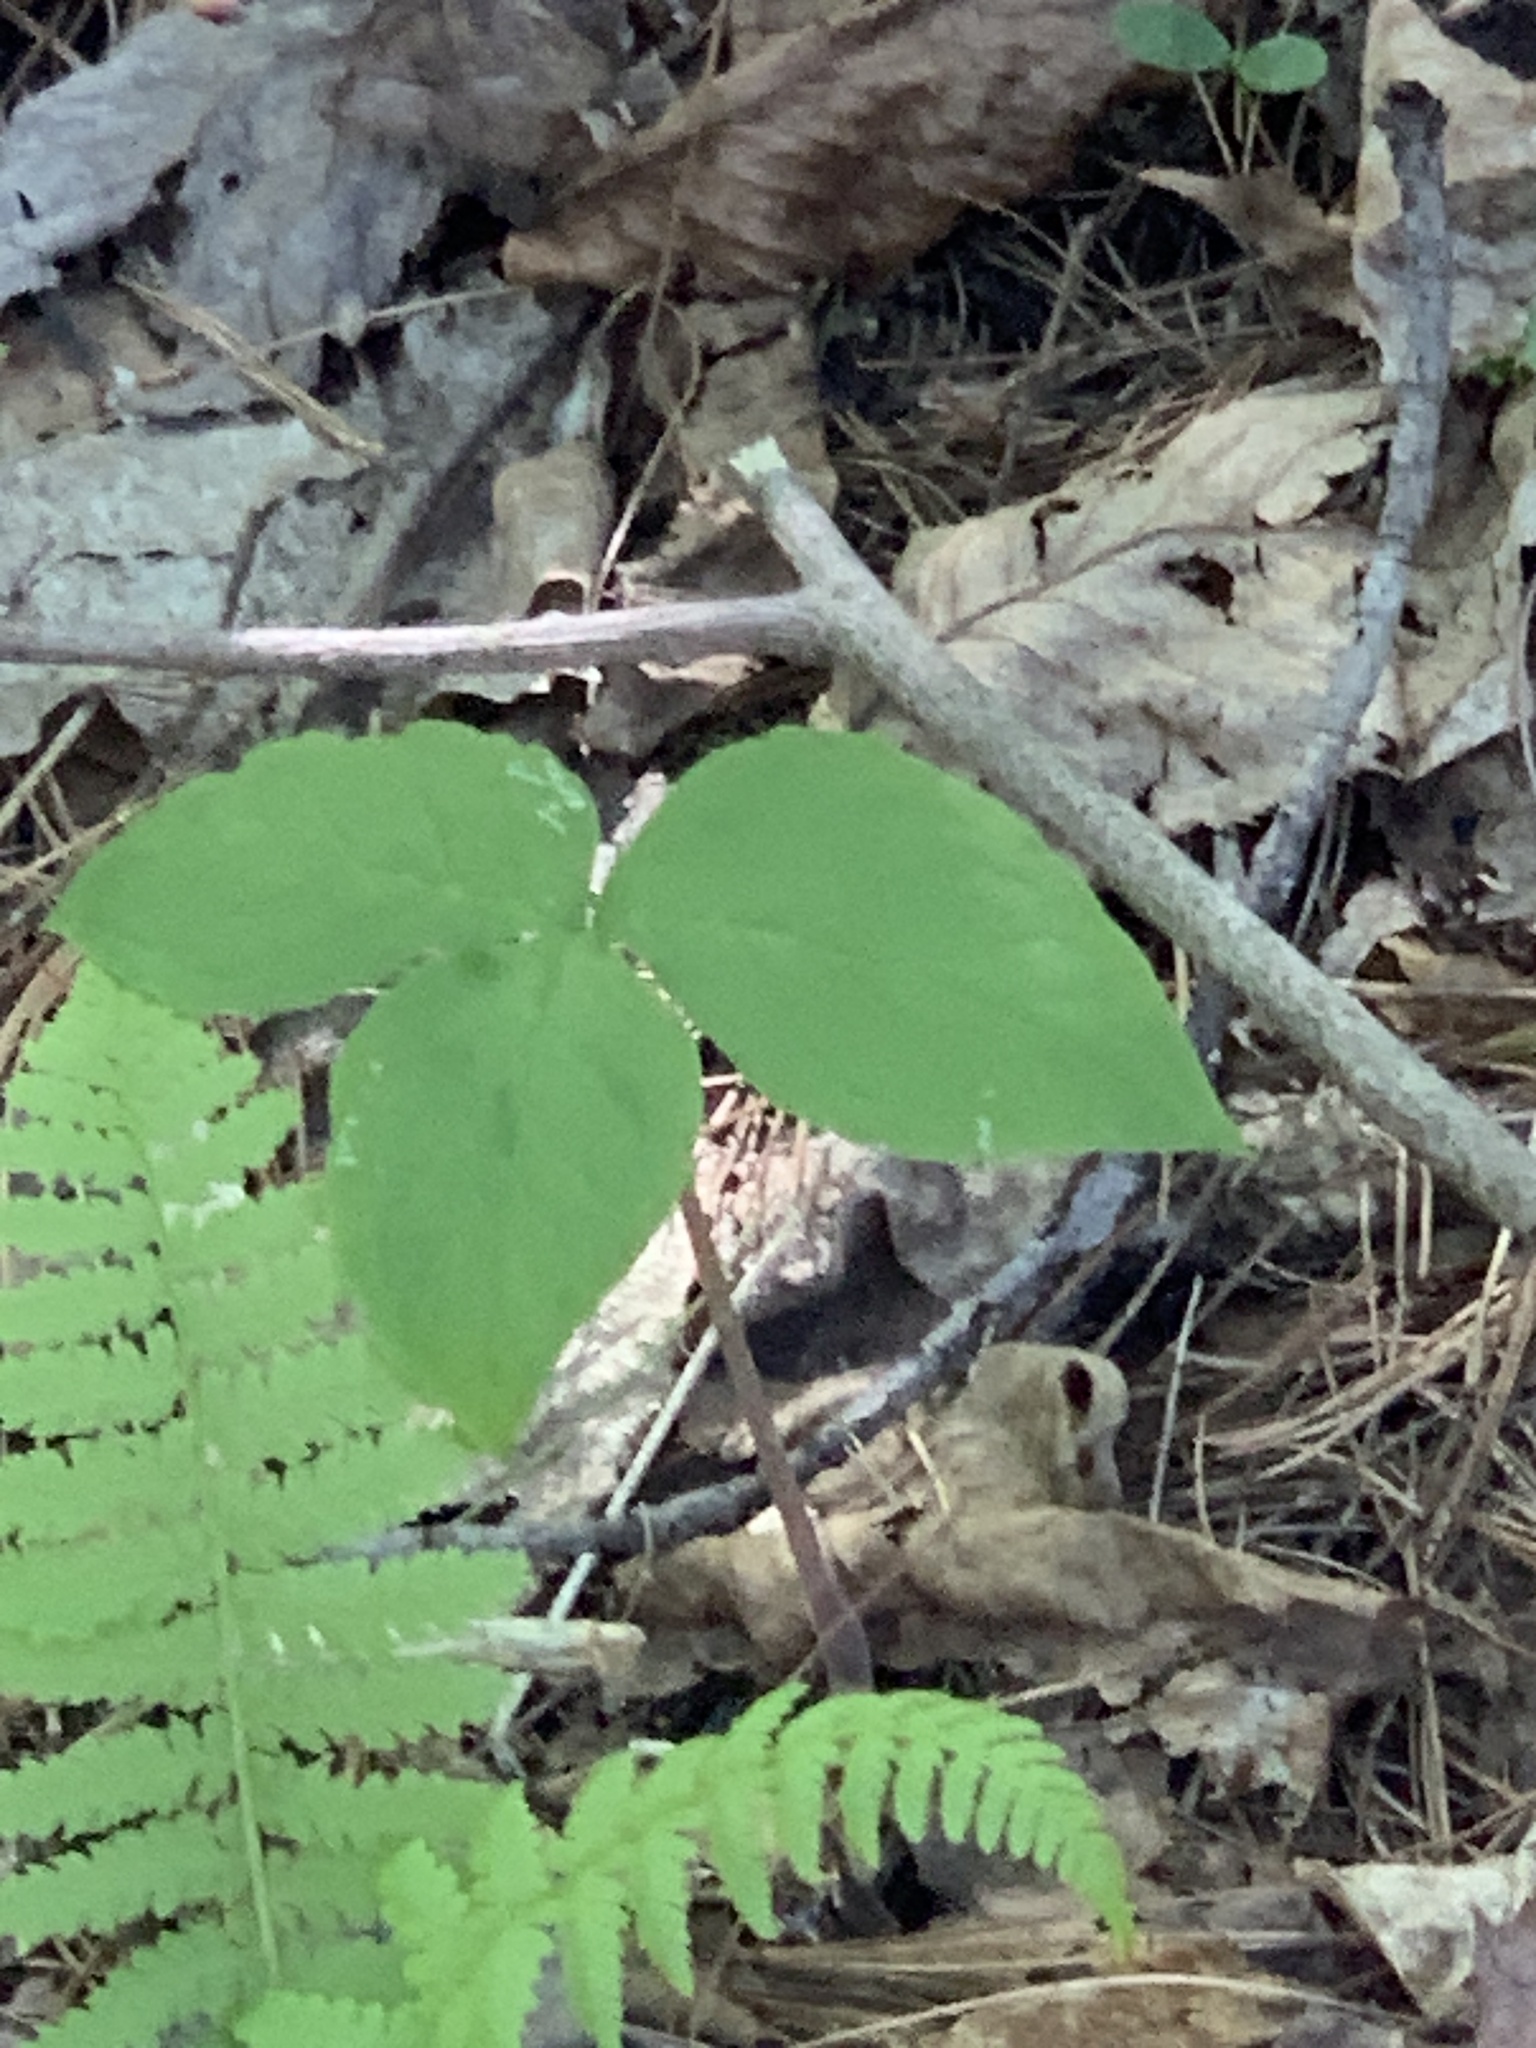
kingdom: Plantae
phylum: Tracheophyta
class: Liliopsida
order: Alismatales
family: Araceae
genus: Arisaema
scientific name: Arisaema triphyllum
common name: Jack-in-the-pulpit
